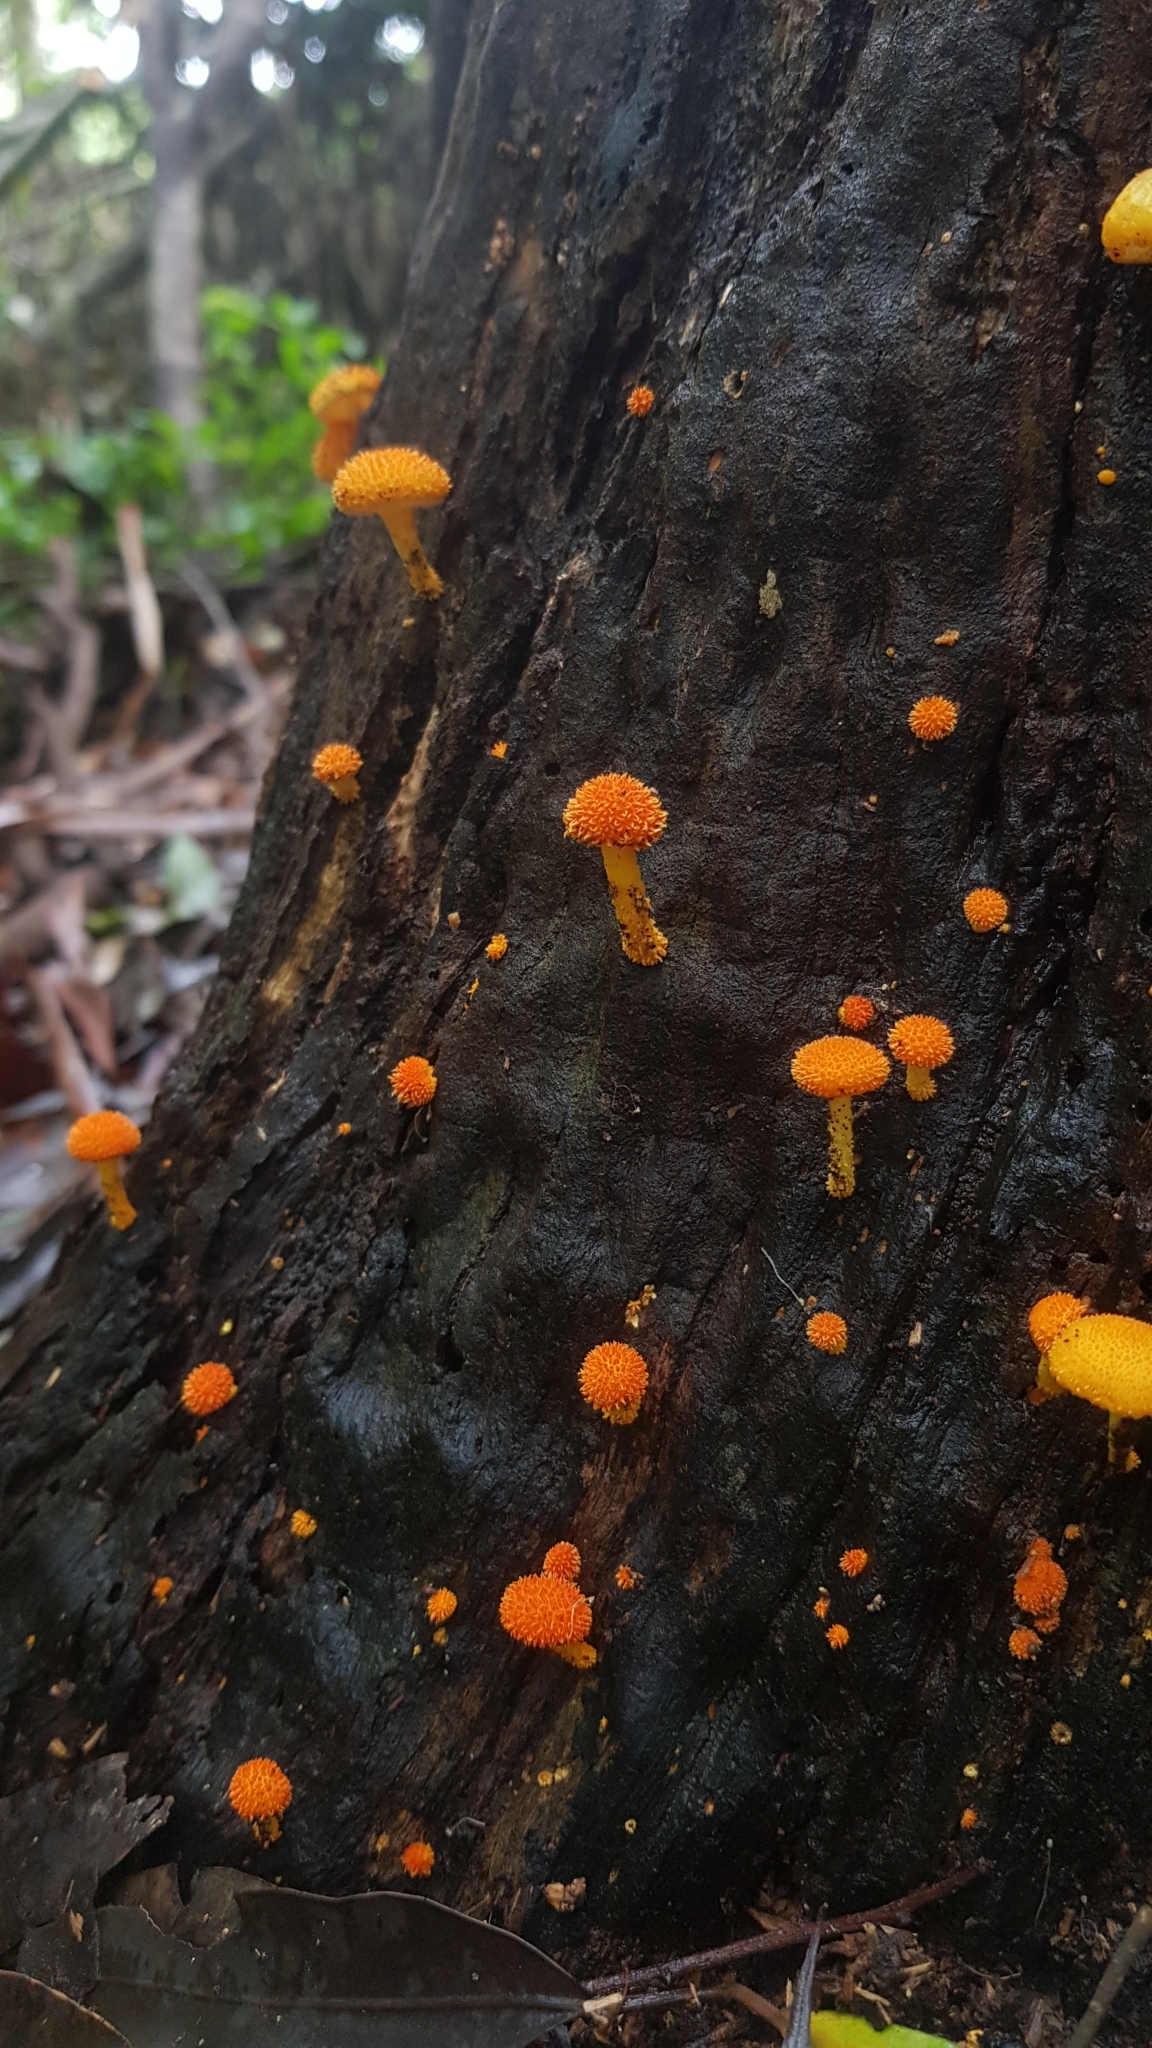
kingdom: Fungi
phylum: Basidiomycota
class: Agaricomycetes
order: Agaricales
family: Physalacriaceae
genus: Cyptotrama
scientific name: Cyptotrama asprata
